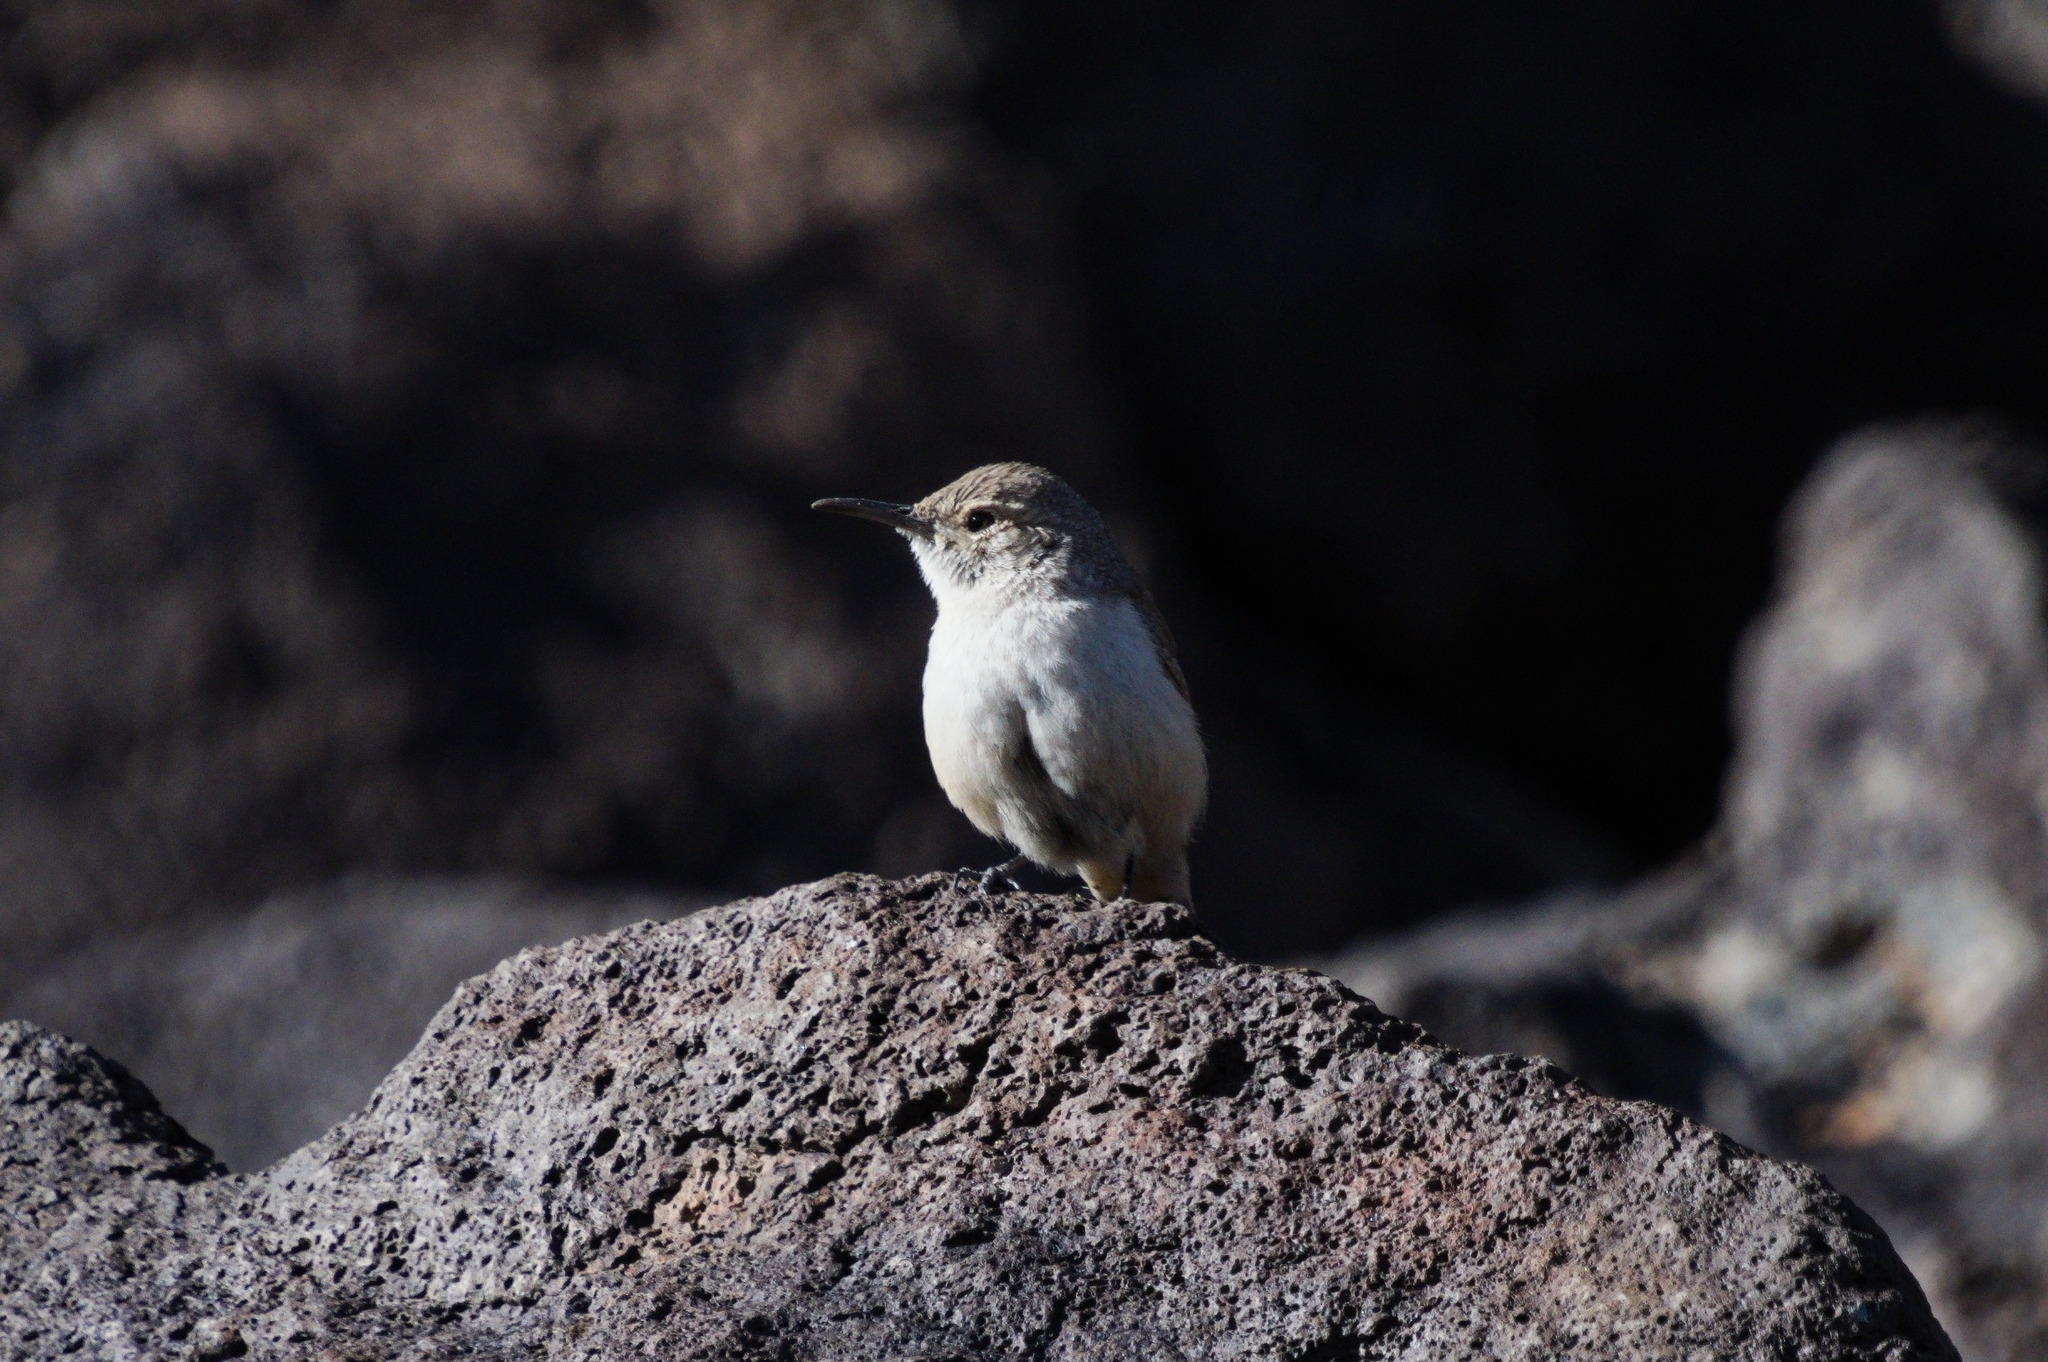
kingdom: Animalia
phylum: Chordata
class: Aves
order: Passeriformes
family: Troglodytidae
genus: Salpinctes
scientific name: Salpinctes obsoletus
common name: Rock wren
